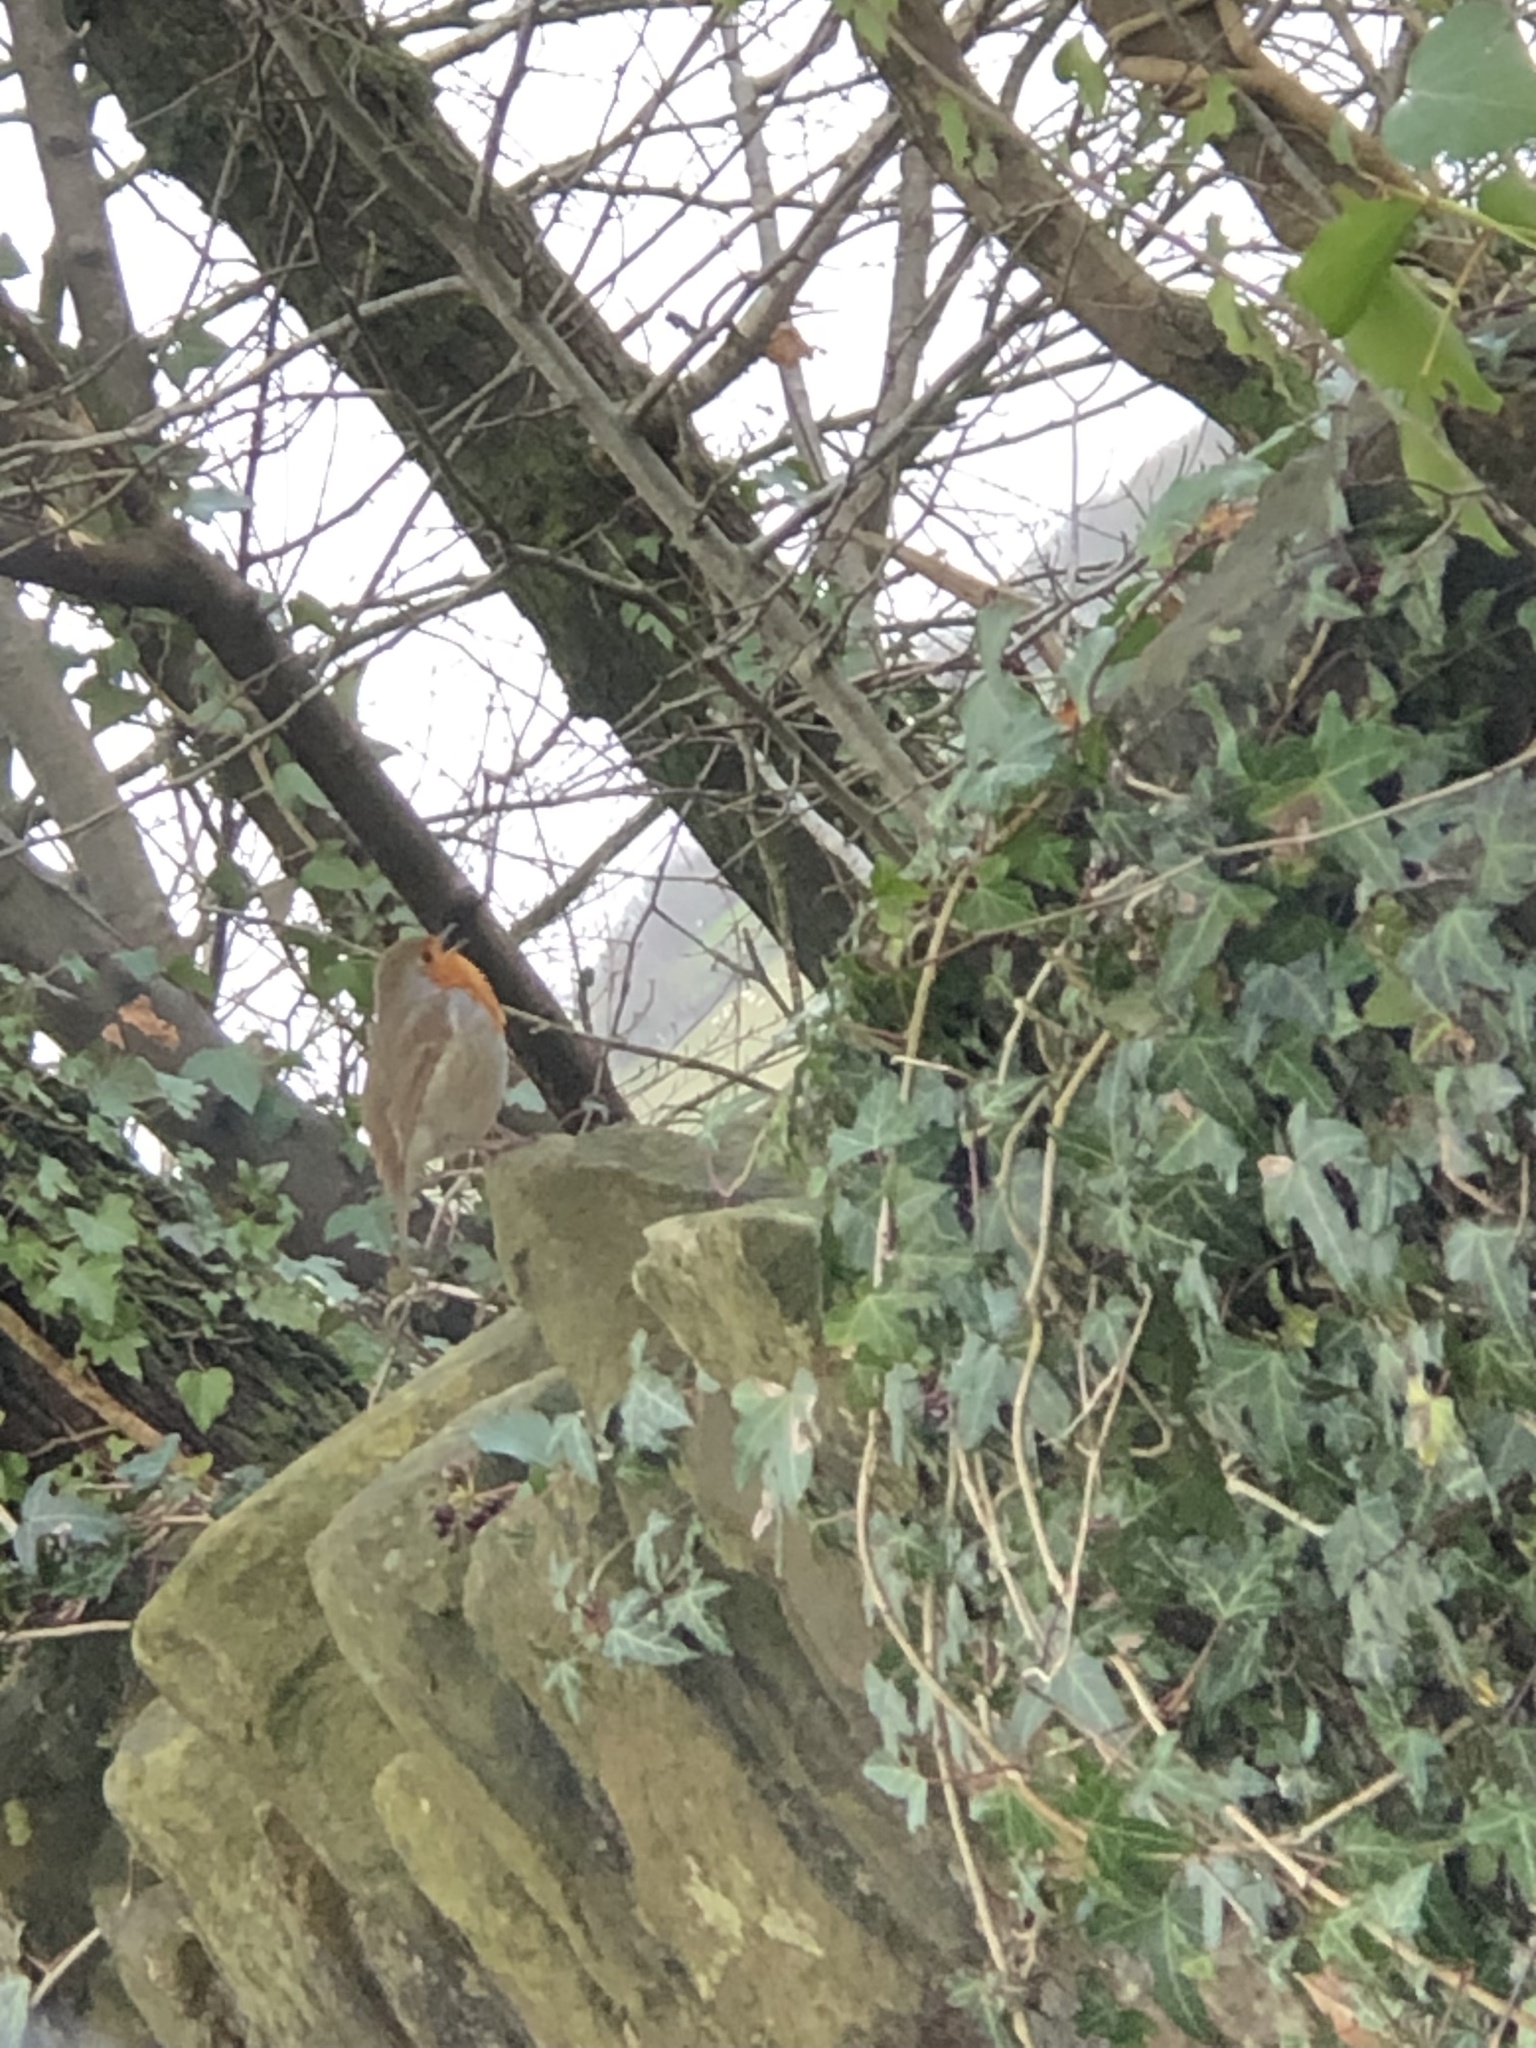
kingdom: Animalia
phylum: Chordata
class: Aves
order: Passeriformes
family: Muscicapidae
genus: Erithacus
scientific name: Erithacus rubecula
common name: European robin
